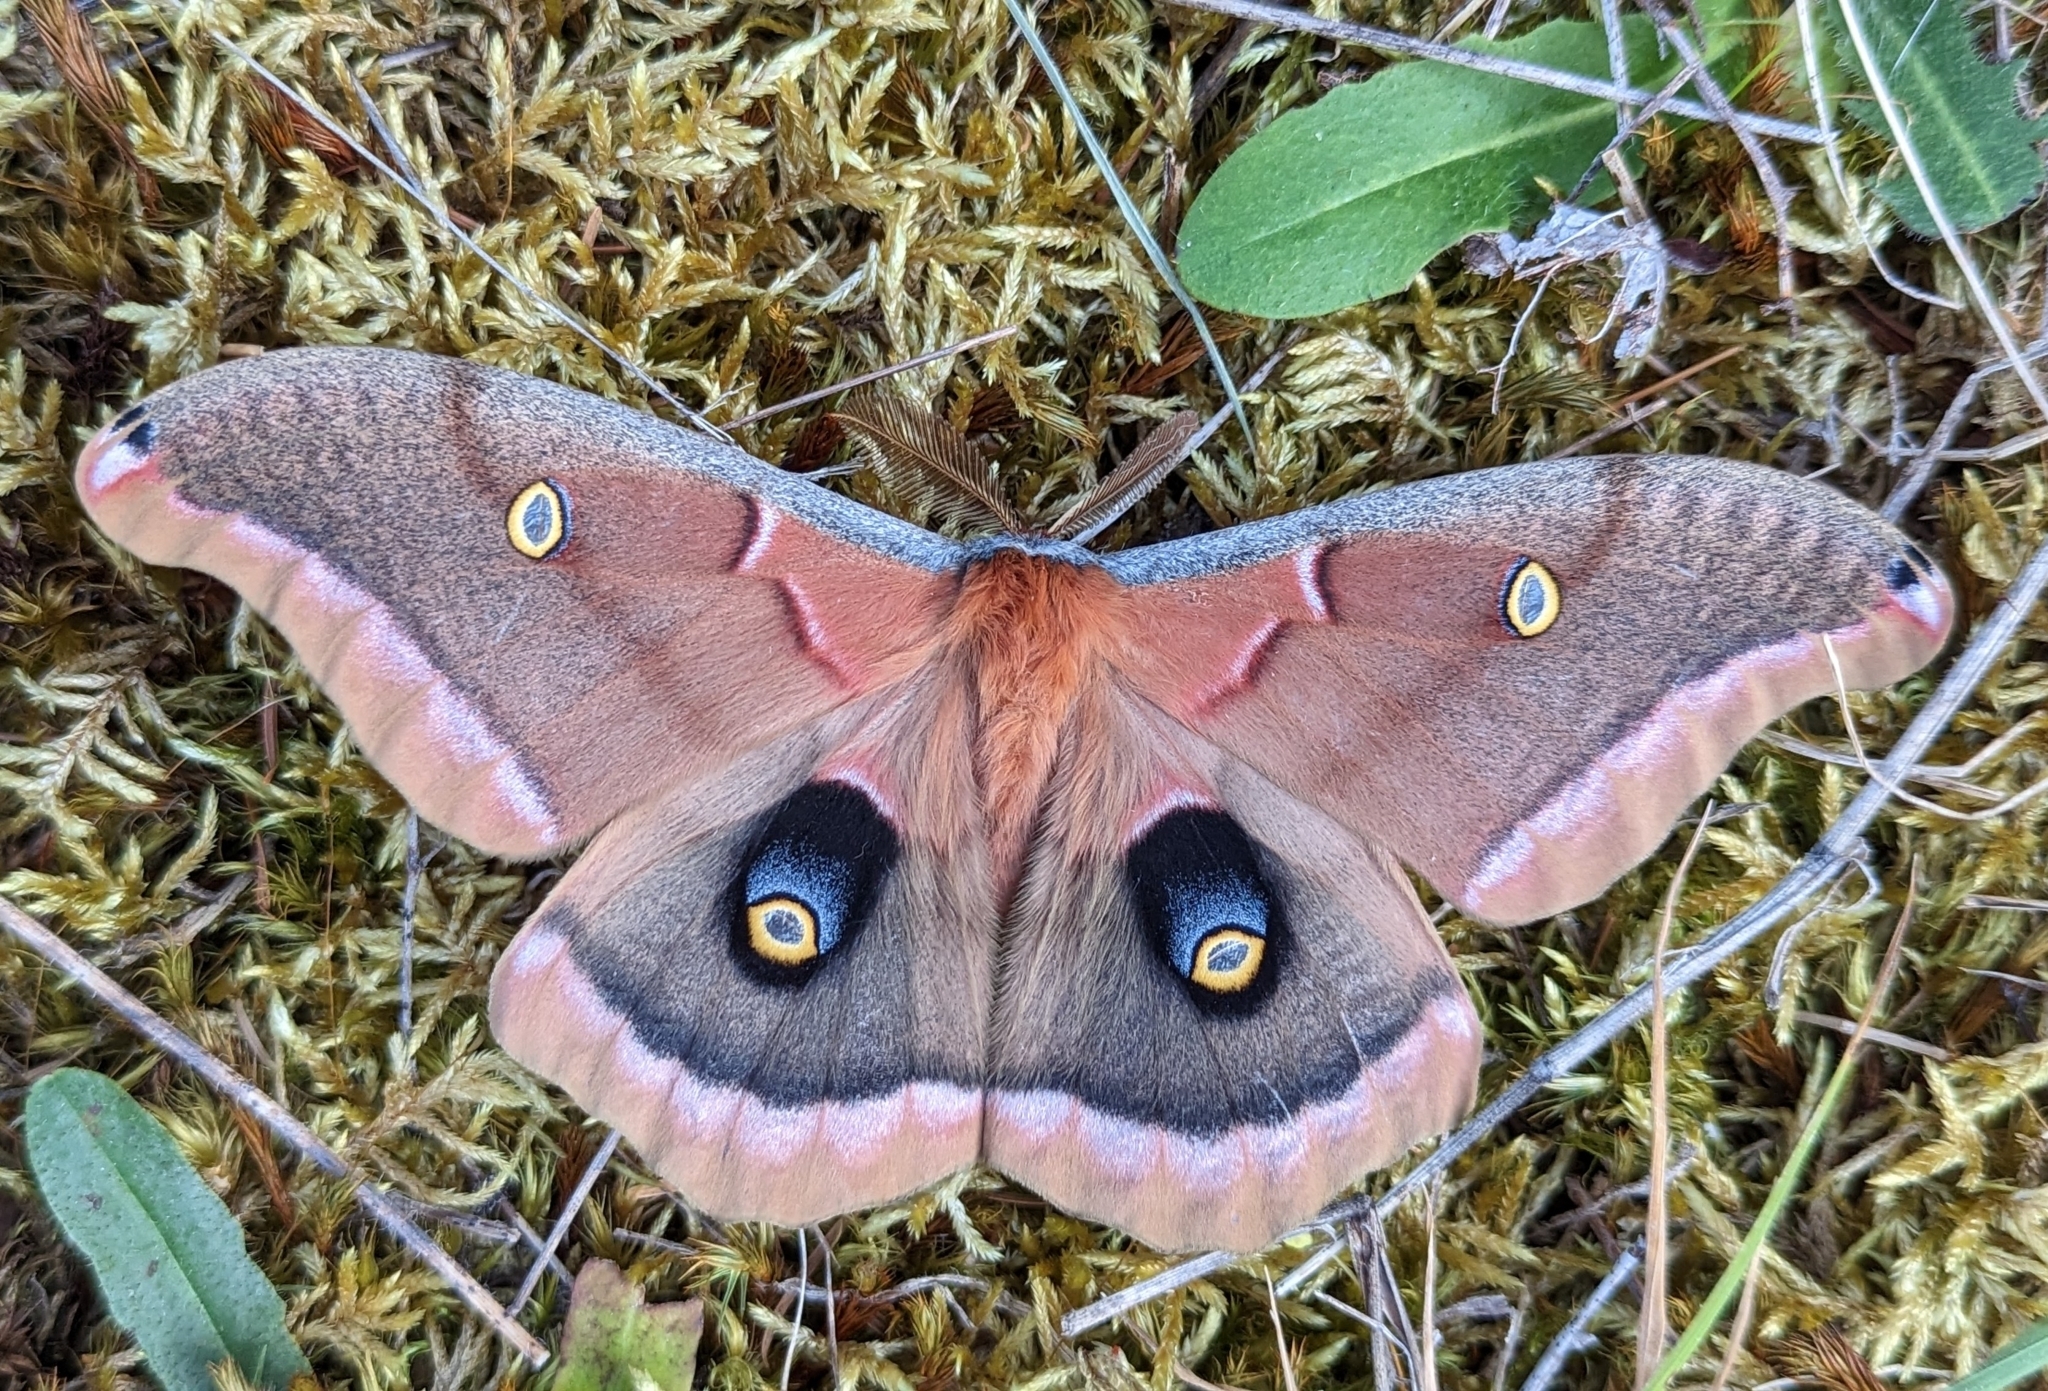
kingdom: Animalia
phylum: Arthropoda
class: Insecta
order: Lepidoptera
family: Saturniidae
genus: Antheraea
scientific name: Antheraea polyphemus
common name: Polyphemus moth
